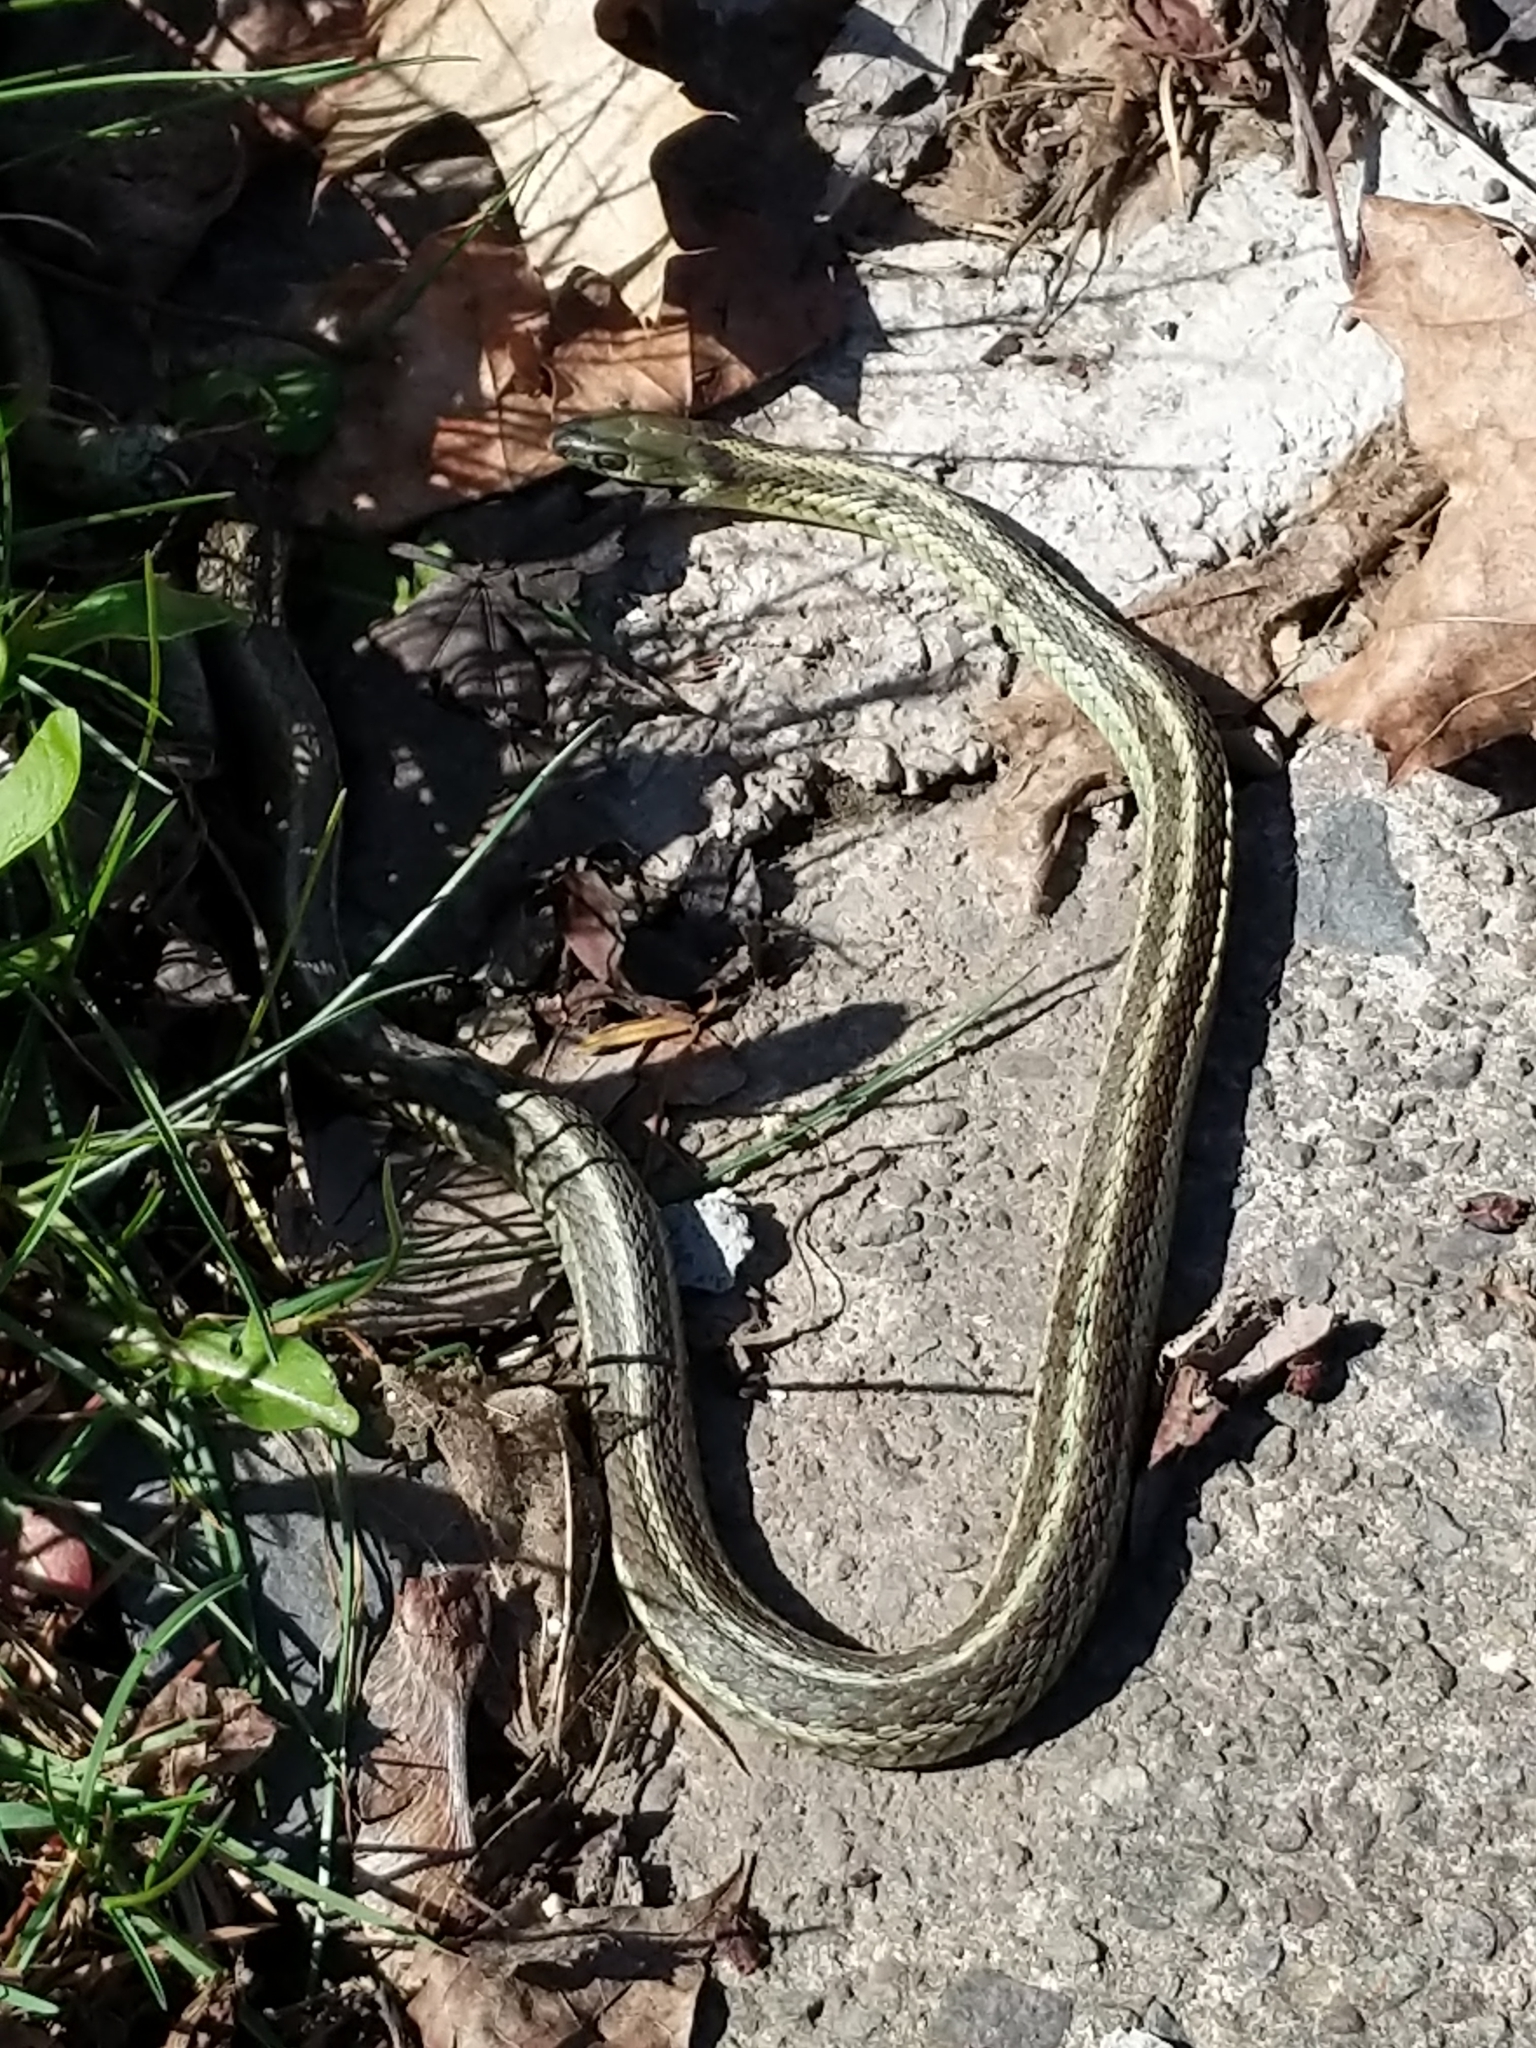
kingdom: Animalia
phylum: Chordata
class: Squamata
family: Colubridae
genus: Thamnophis
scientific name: Thamnophis sirtalis
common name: Common garter snake
